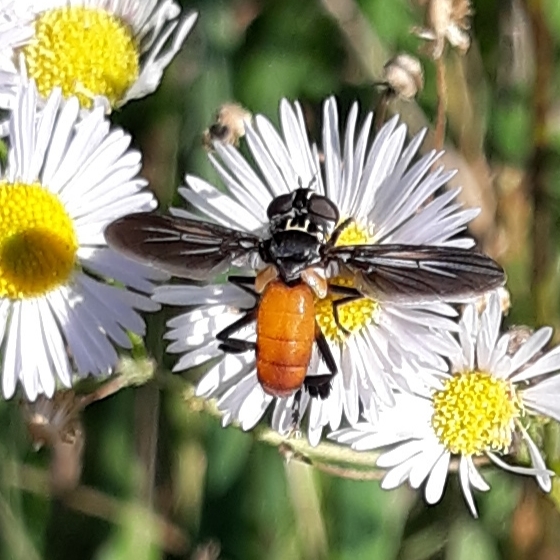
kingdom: Animalia
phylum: Arthropoda
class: Insecta
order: Diptera
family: Tachinidae
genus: Trichopoda
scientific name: Trichopoda pennipes
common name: Tachinid fly
